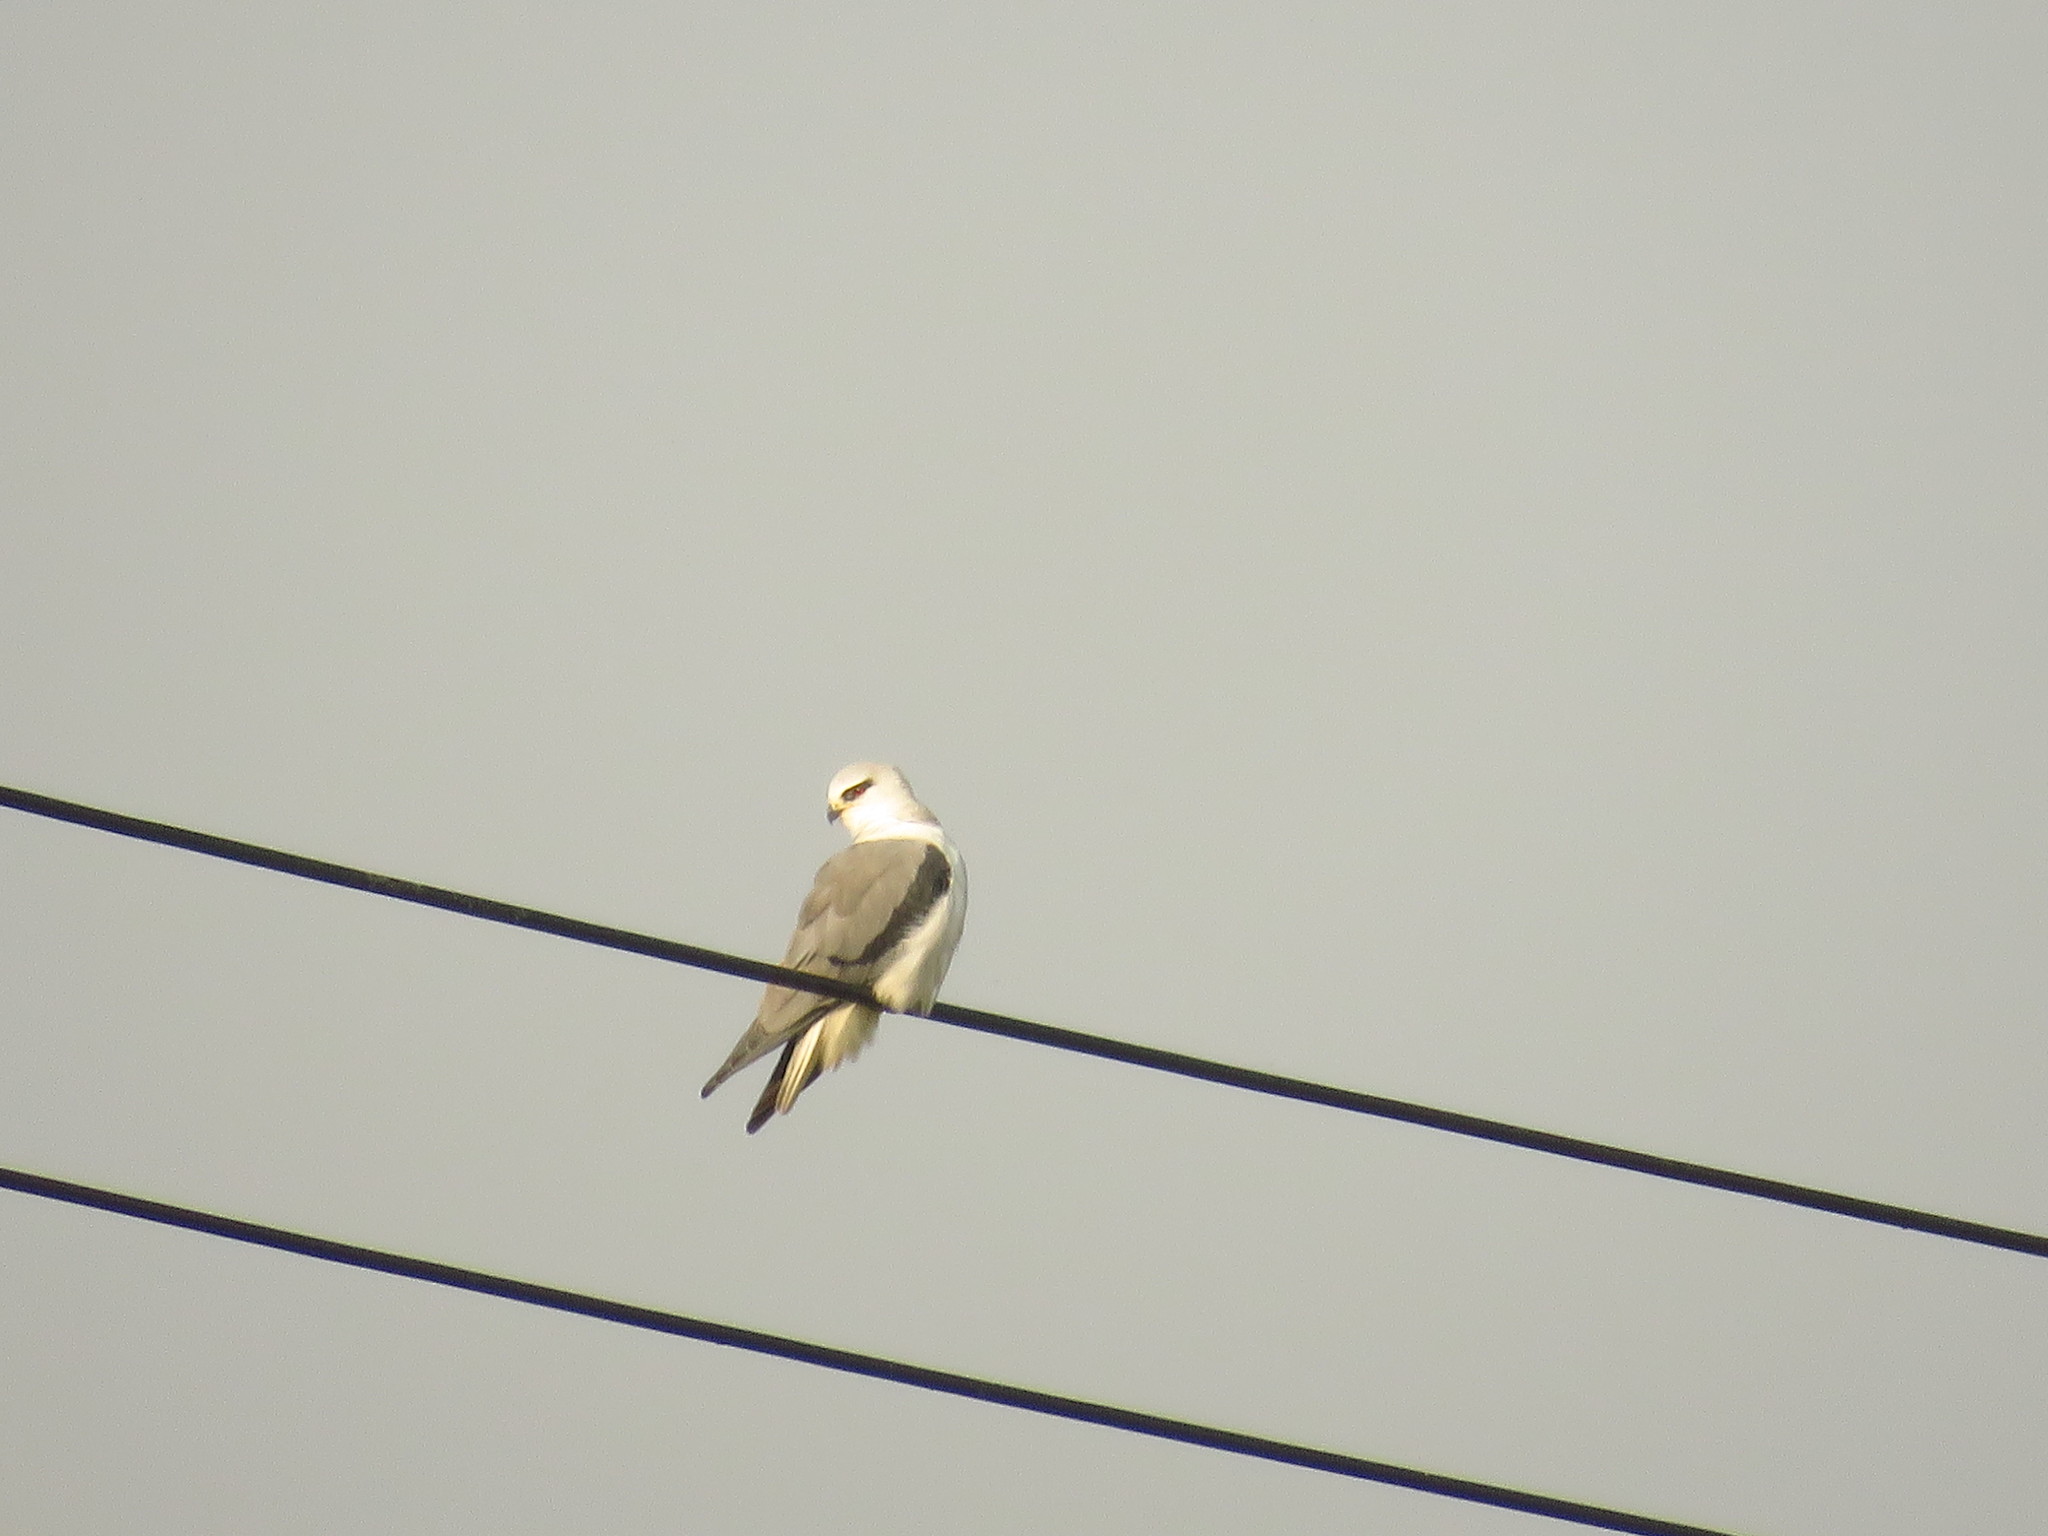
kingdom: Animalia
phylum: Chordata
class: Aves
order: Accipitriformes
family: Accipitridae
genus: Elanus
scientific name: Elanus caeruleus
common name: Black-winged kite
